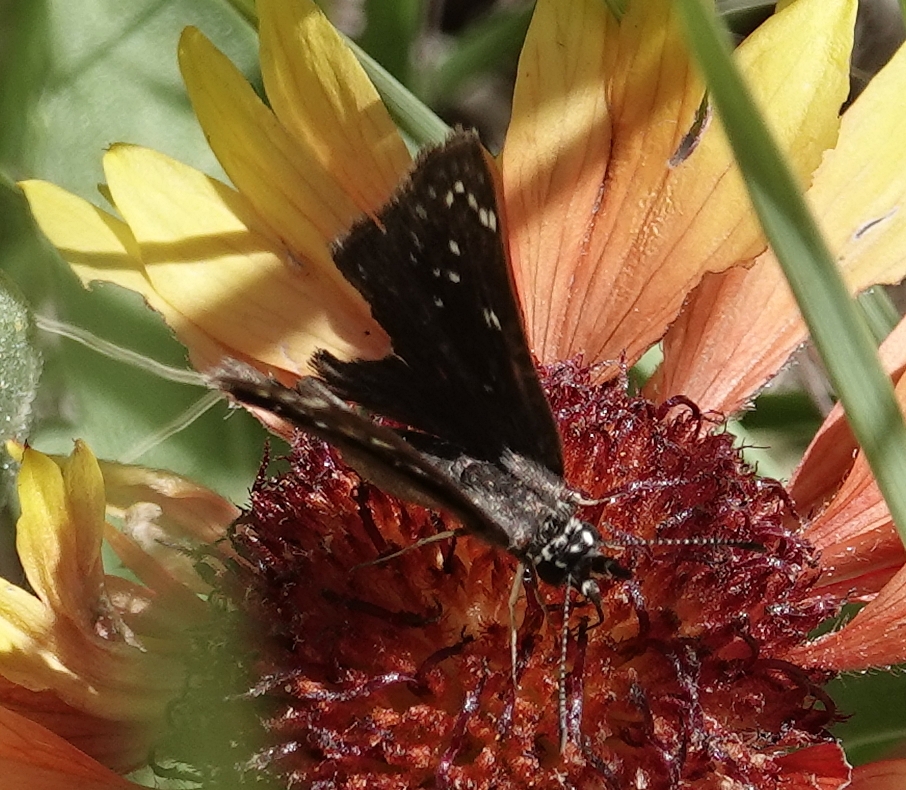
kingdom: Animalia
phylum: Arthropoda
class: Insecta
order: Lepidoptera
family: Hesperiidae
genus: Pholisora
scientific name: Pholisora catullus
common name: Common sootywing
